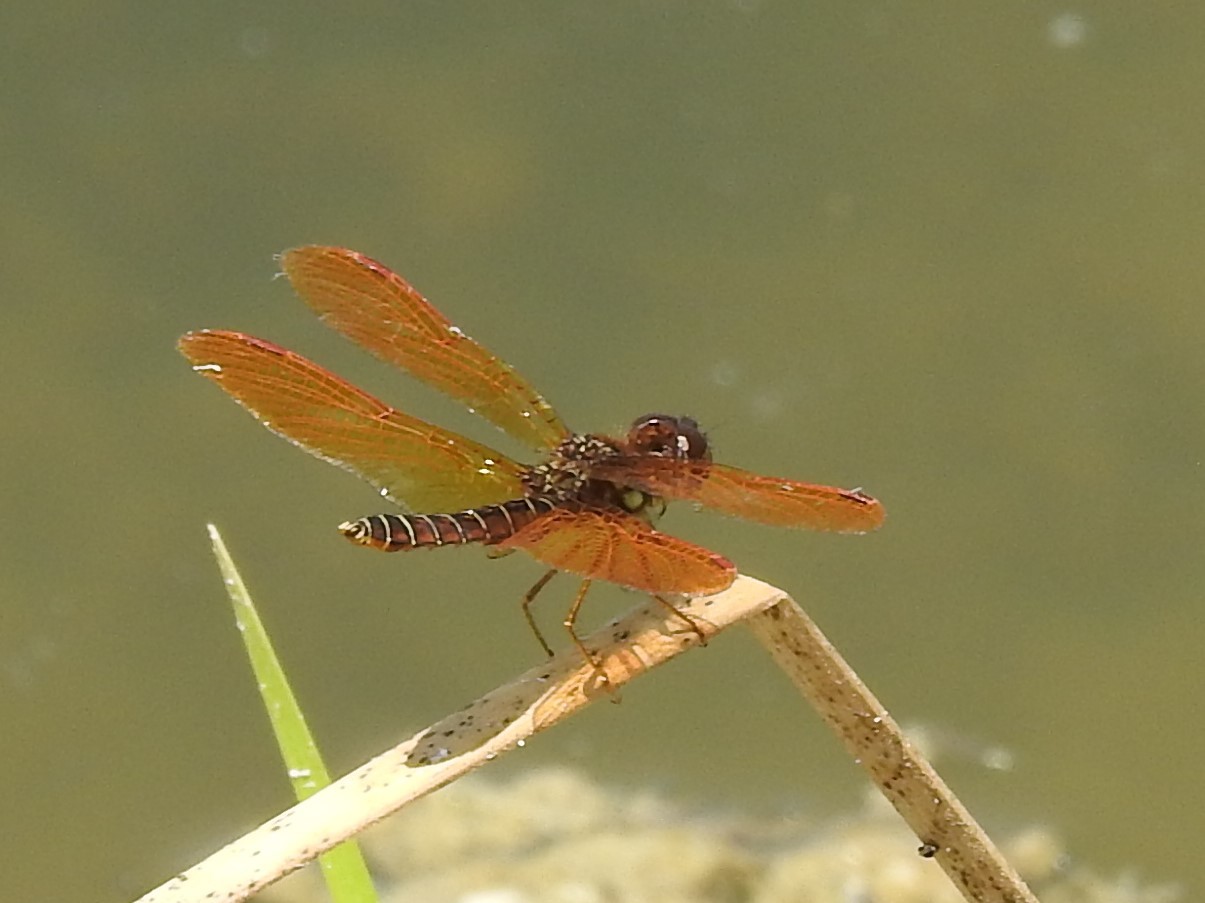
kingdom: Animalia
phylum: Arthropoda
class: Insecta
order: Odonata
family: Libellulidae
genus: Perithemis
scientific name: Perithemis tenera
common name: Eastern amberwing
